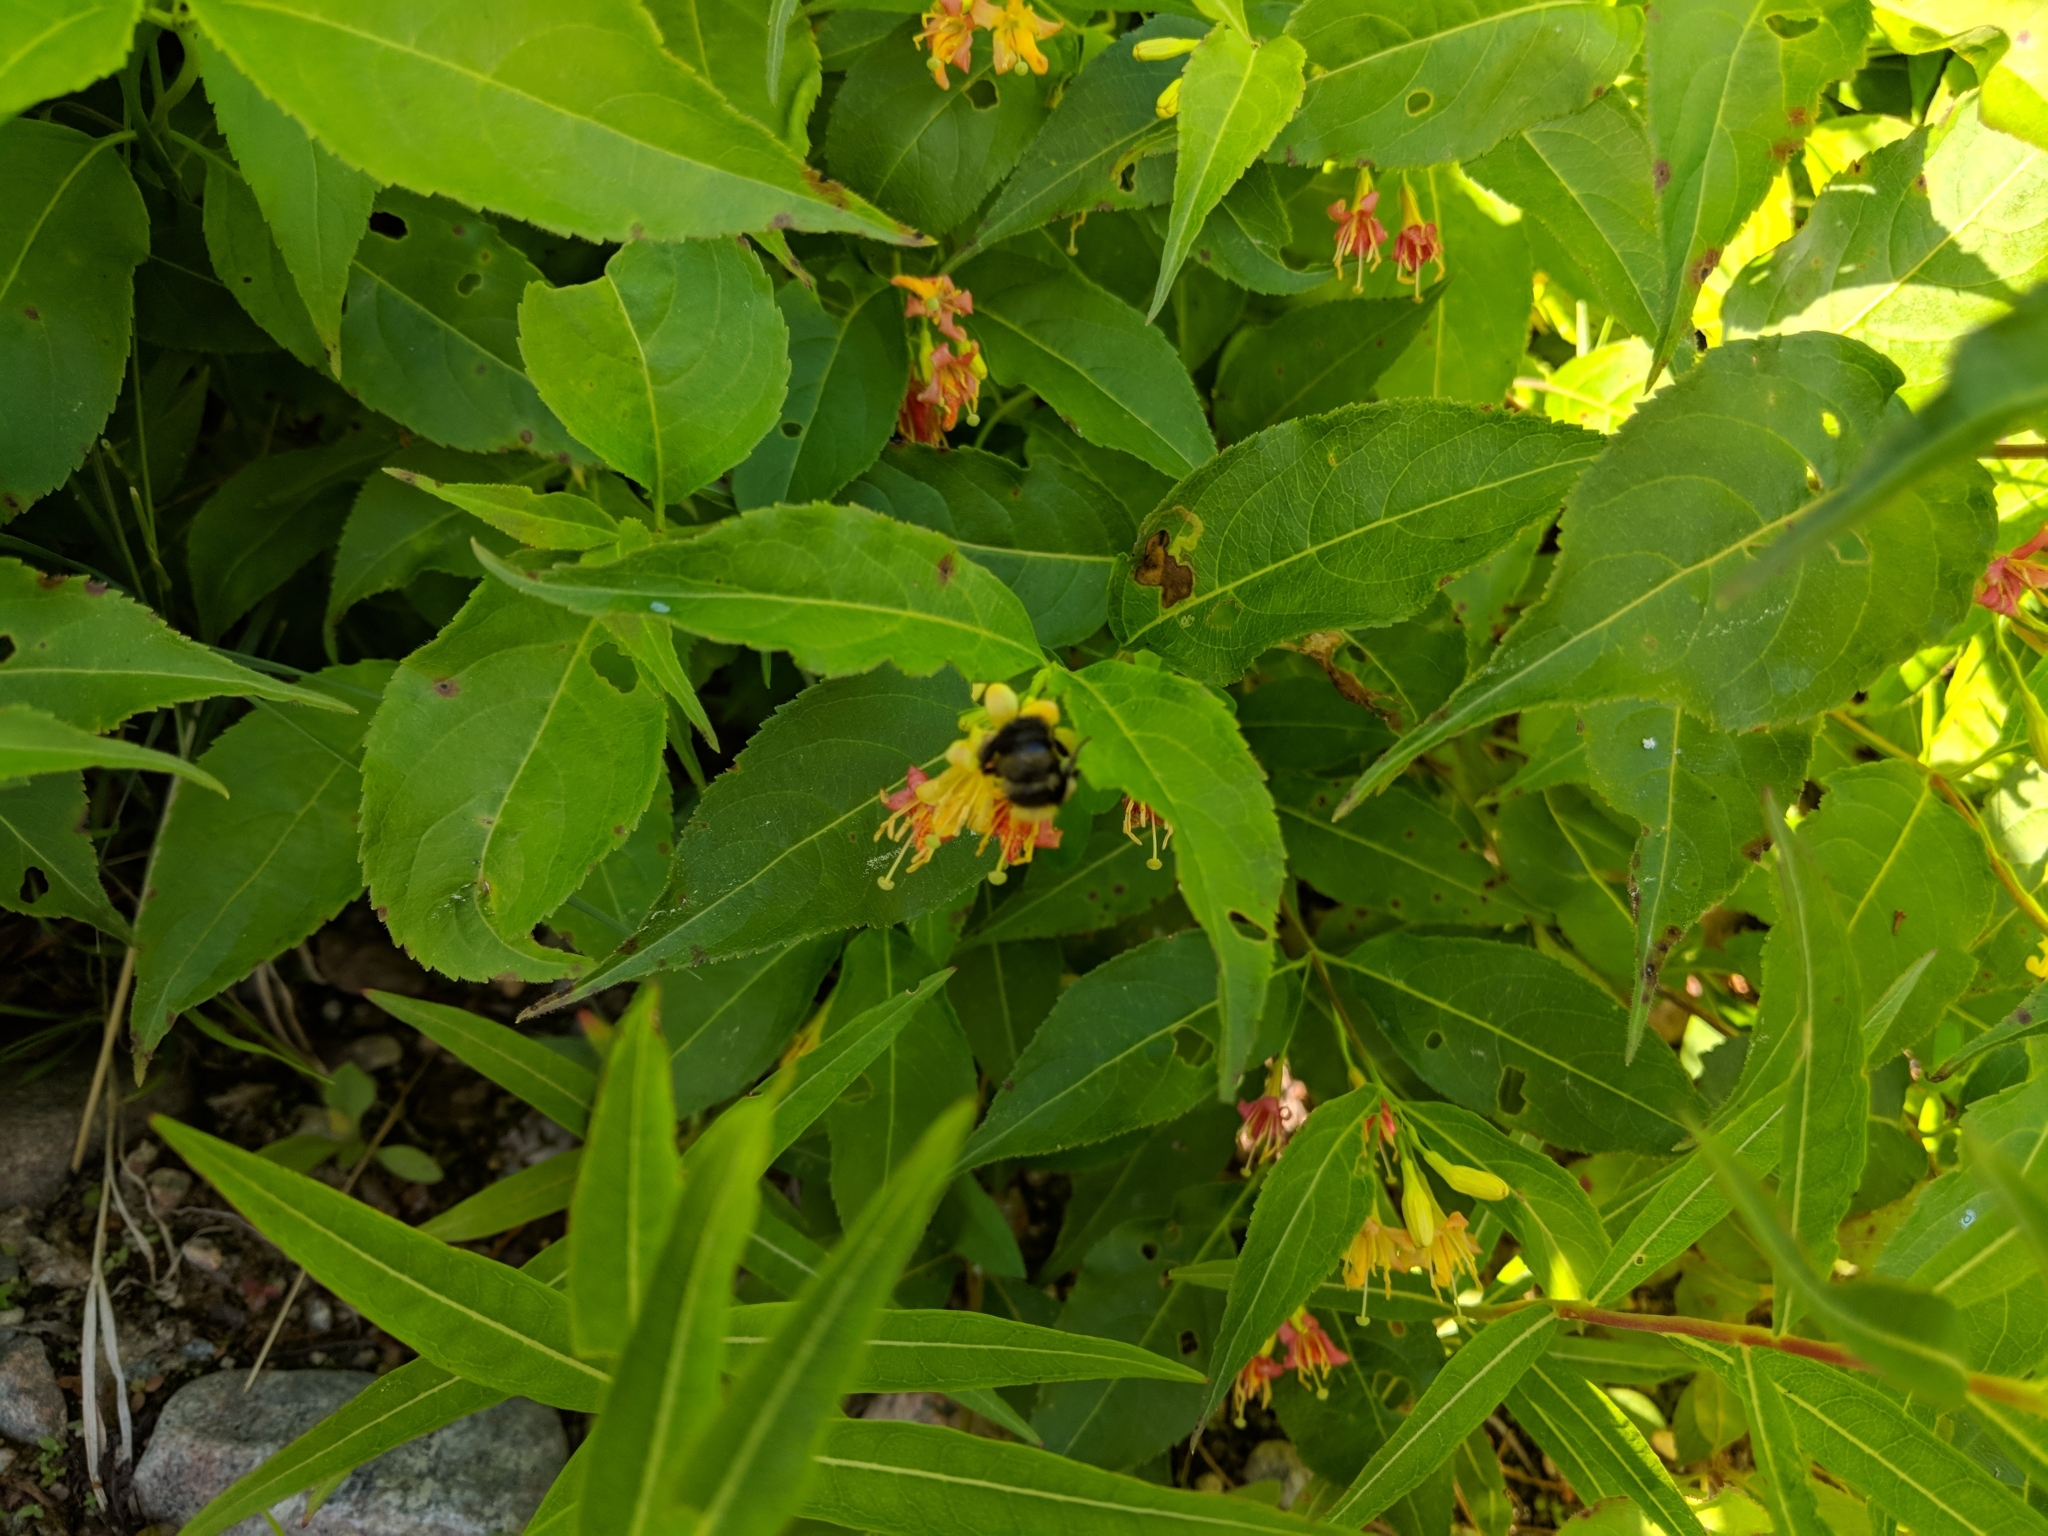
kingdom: Animalia
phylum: Arthropoda
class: Insecta
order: Hymenoptera
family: Apidae
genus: Bombus
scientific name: Bombus
